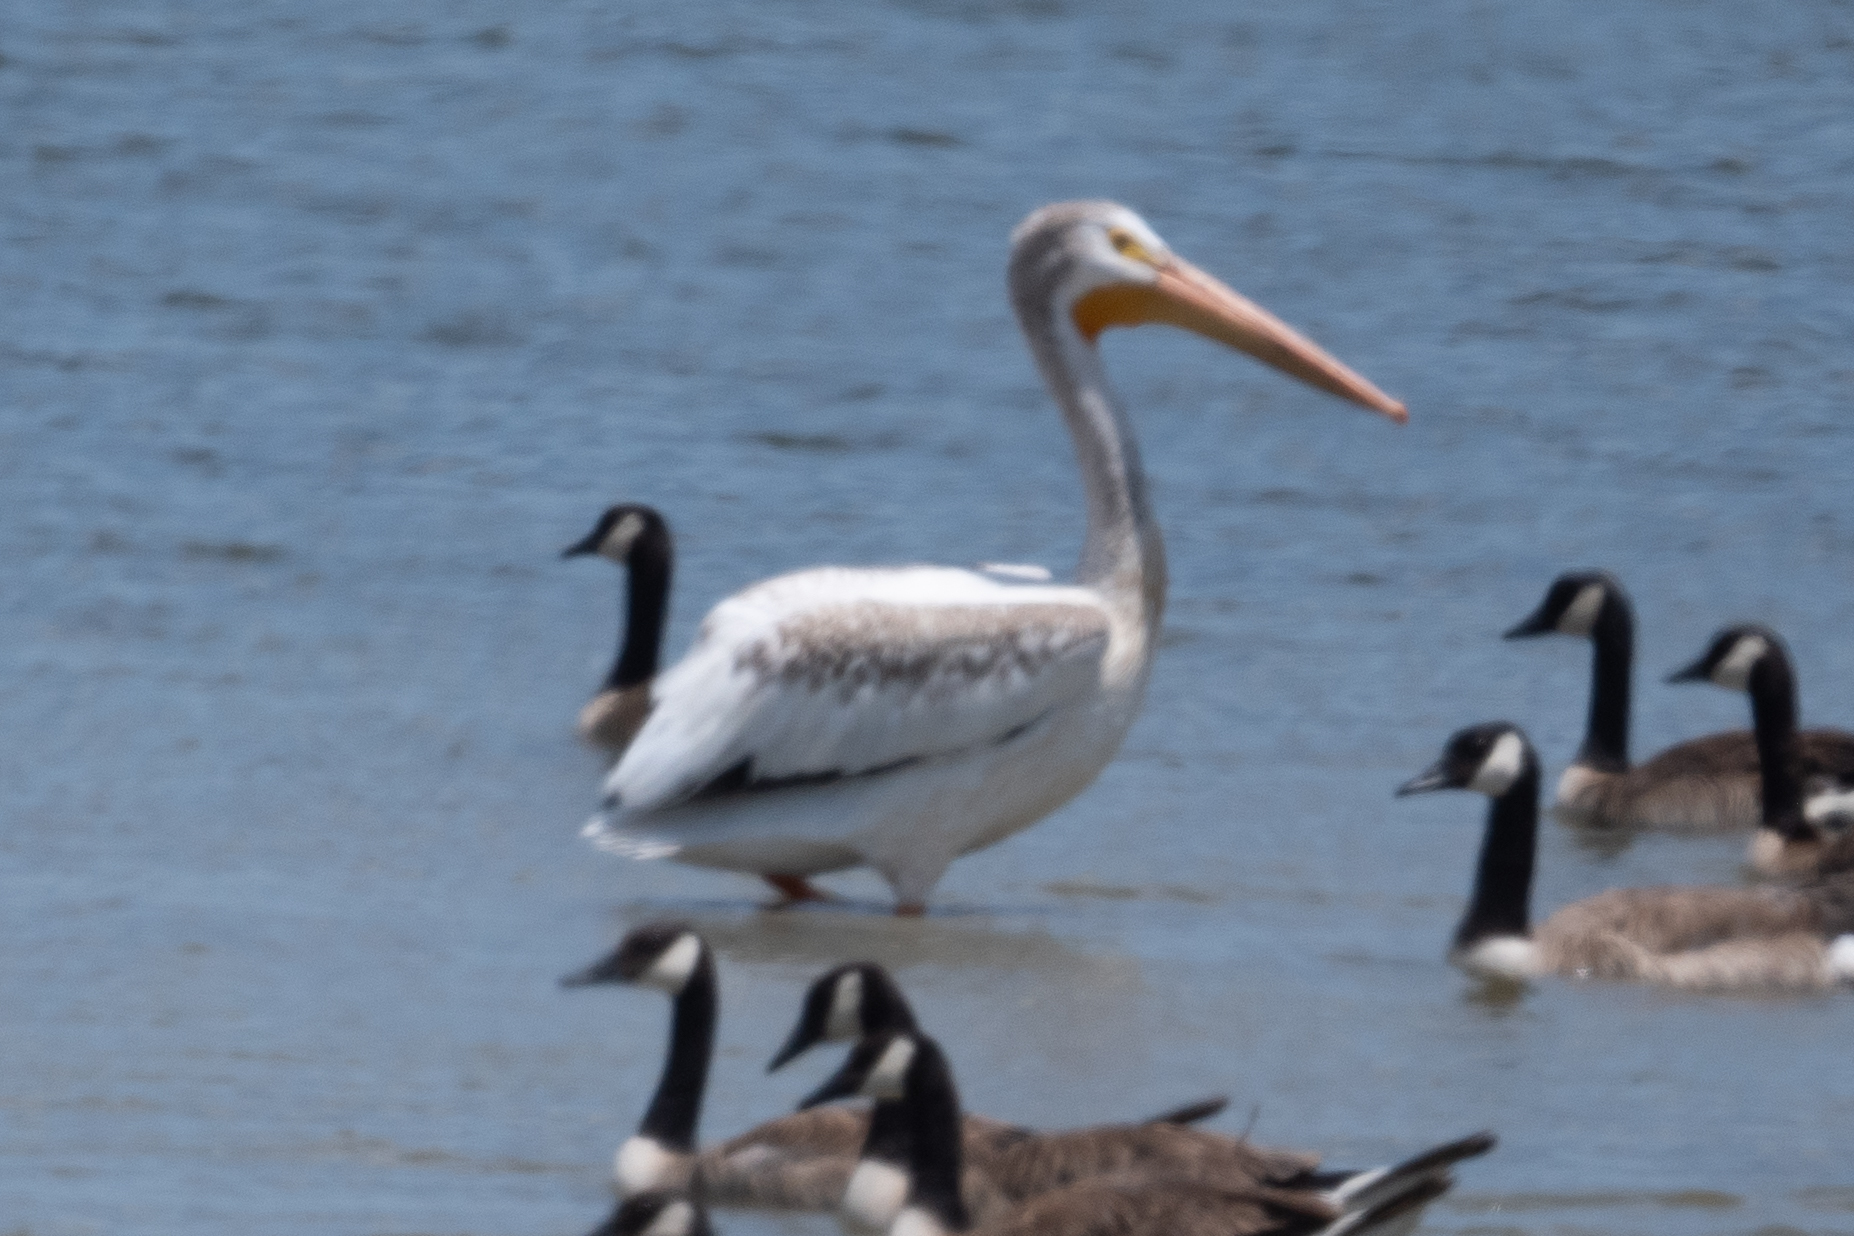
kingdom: Animalia
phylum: Chordata
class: Aves
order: Pelecaniformes
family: Pelecanidae
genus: Pelecanus
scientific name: Pelecanus erythrorhynchos
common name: American white pelican
